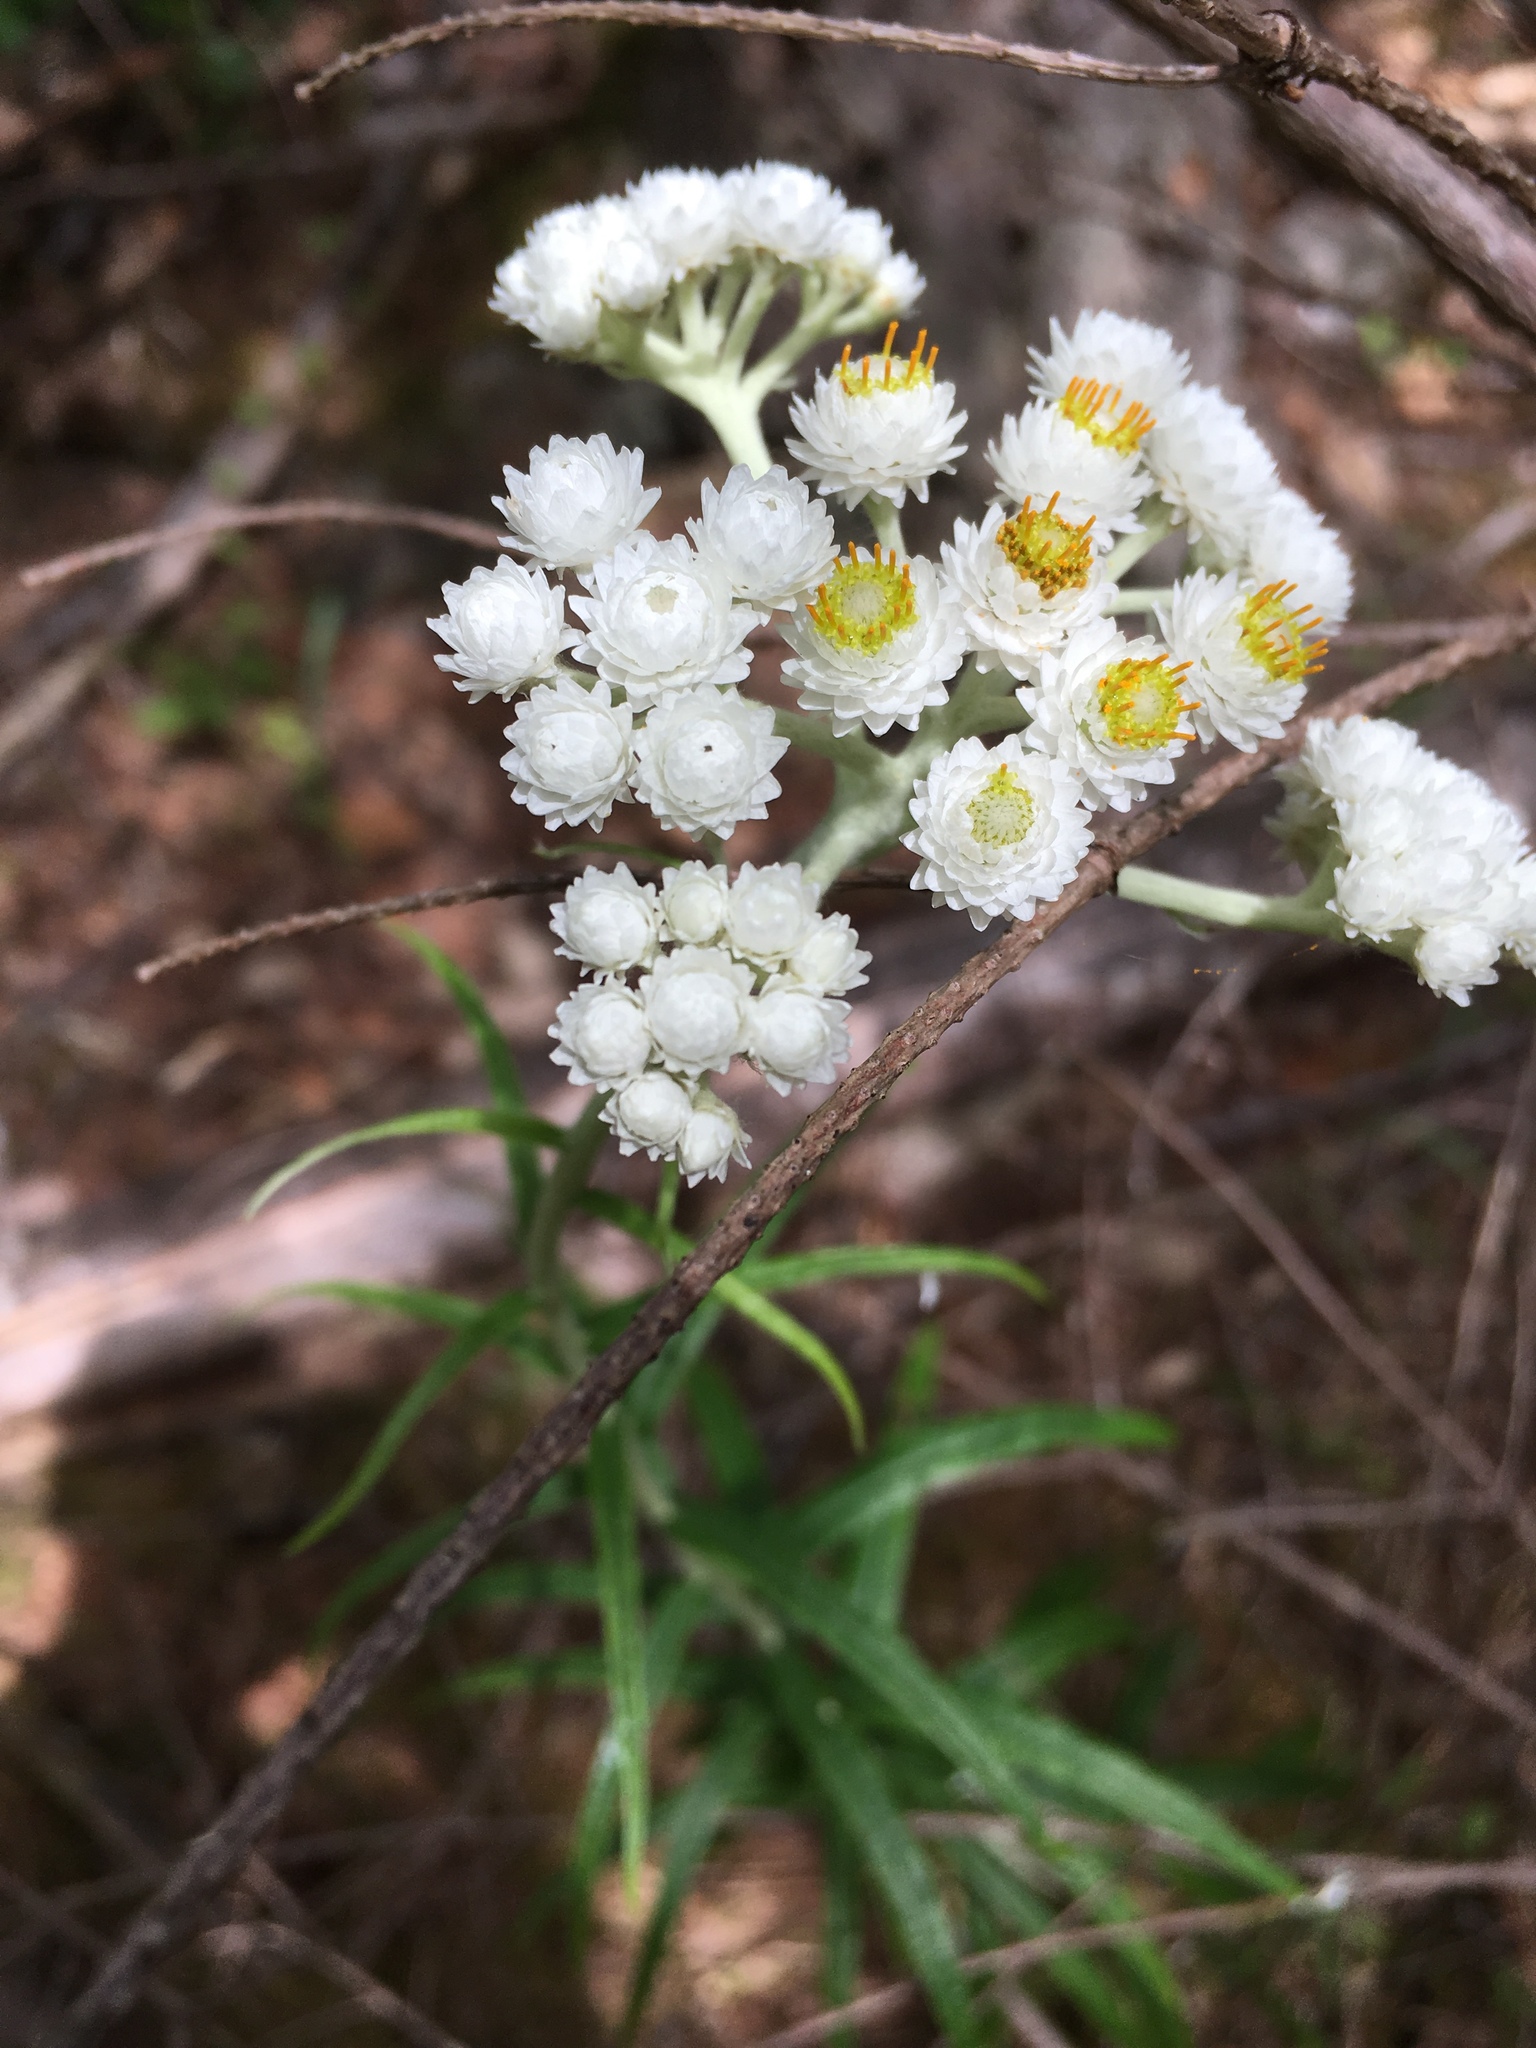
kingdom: Plantae
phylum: Tracheophyta
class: Magnoliopsida
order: Asterales
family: Asteraceae
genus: Anaphalis
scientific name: Anaphalis margaritacea
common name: Pearly everlasting
